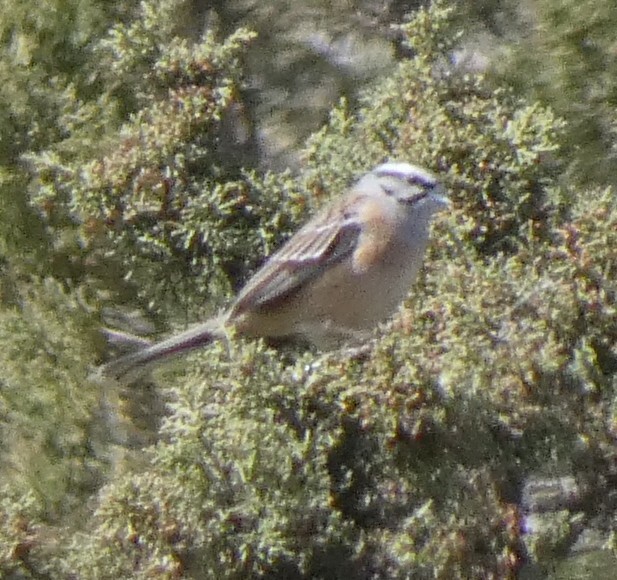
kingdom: Animalia
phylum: Chordata
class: Aves
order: Passeriformes
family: Emberizidae
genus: Emberiza
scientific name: Emberiza cia
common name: Rock bunting
